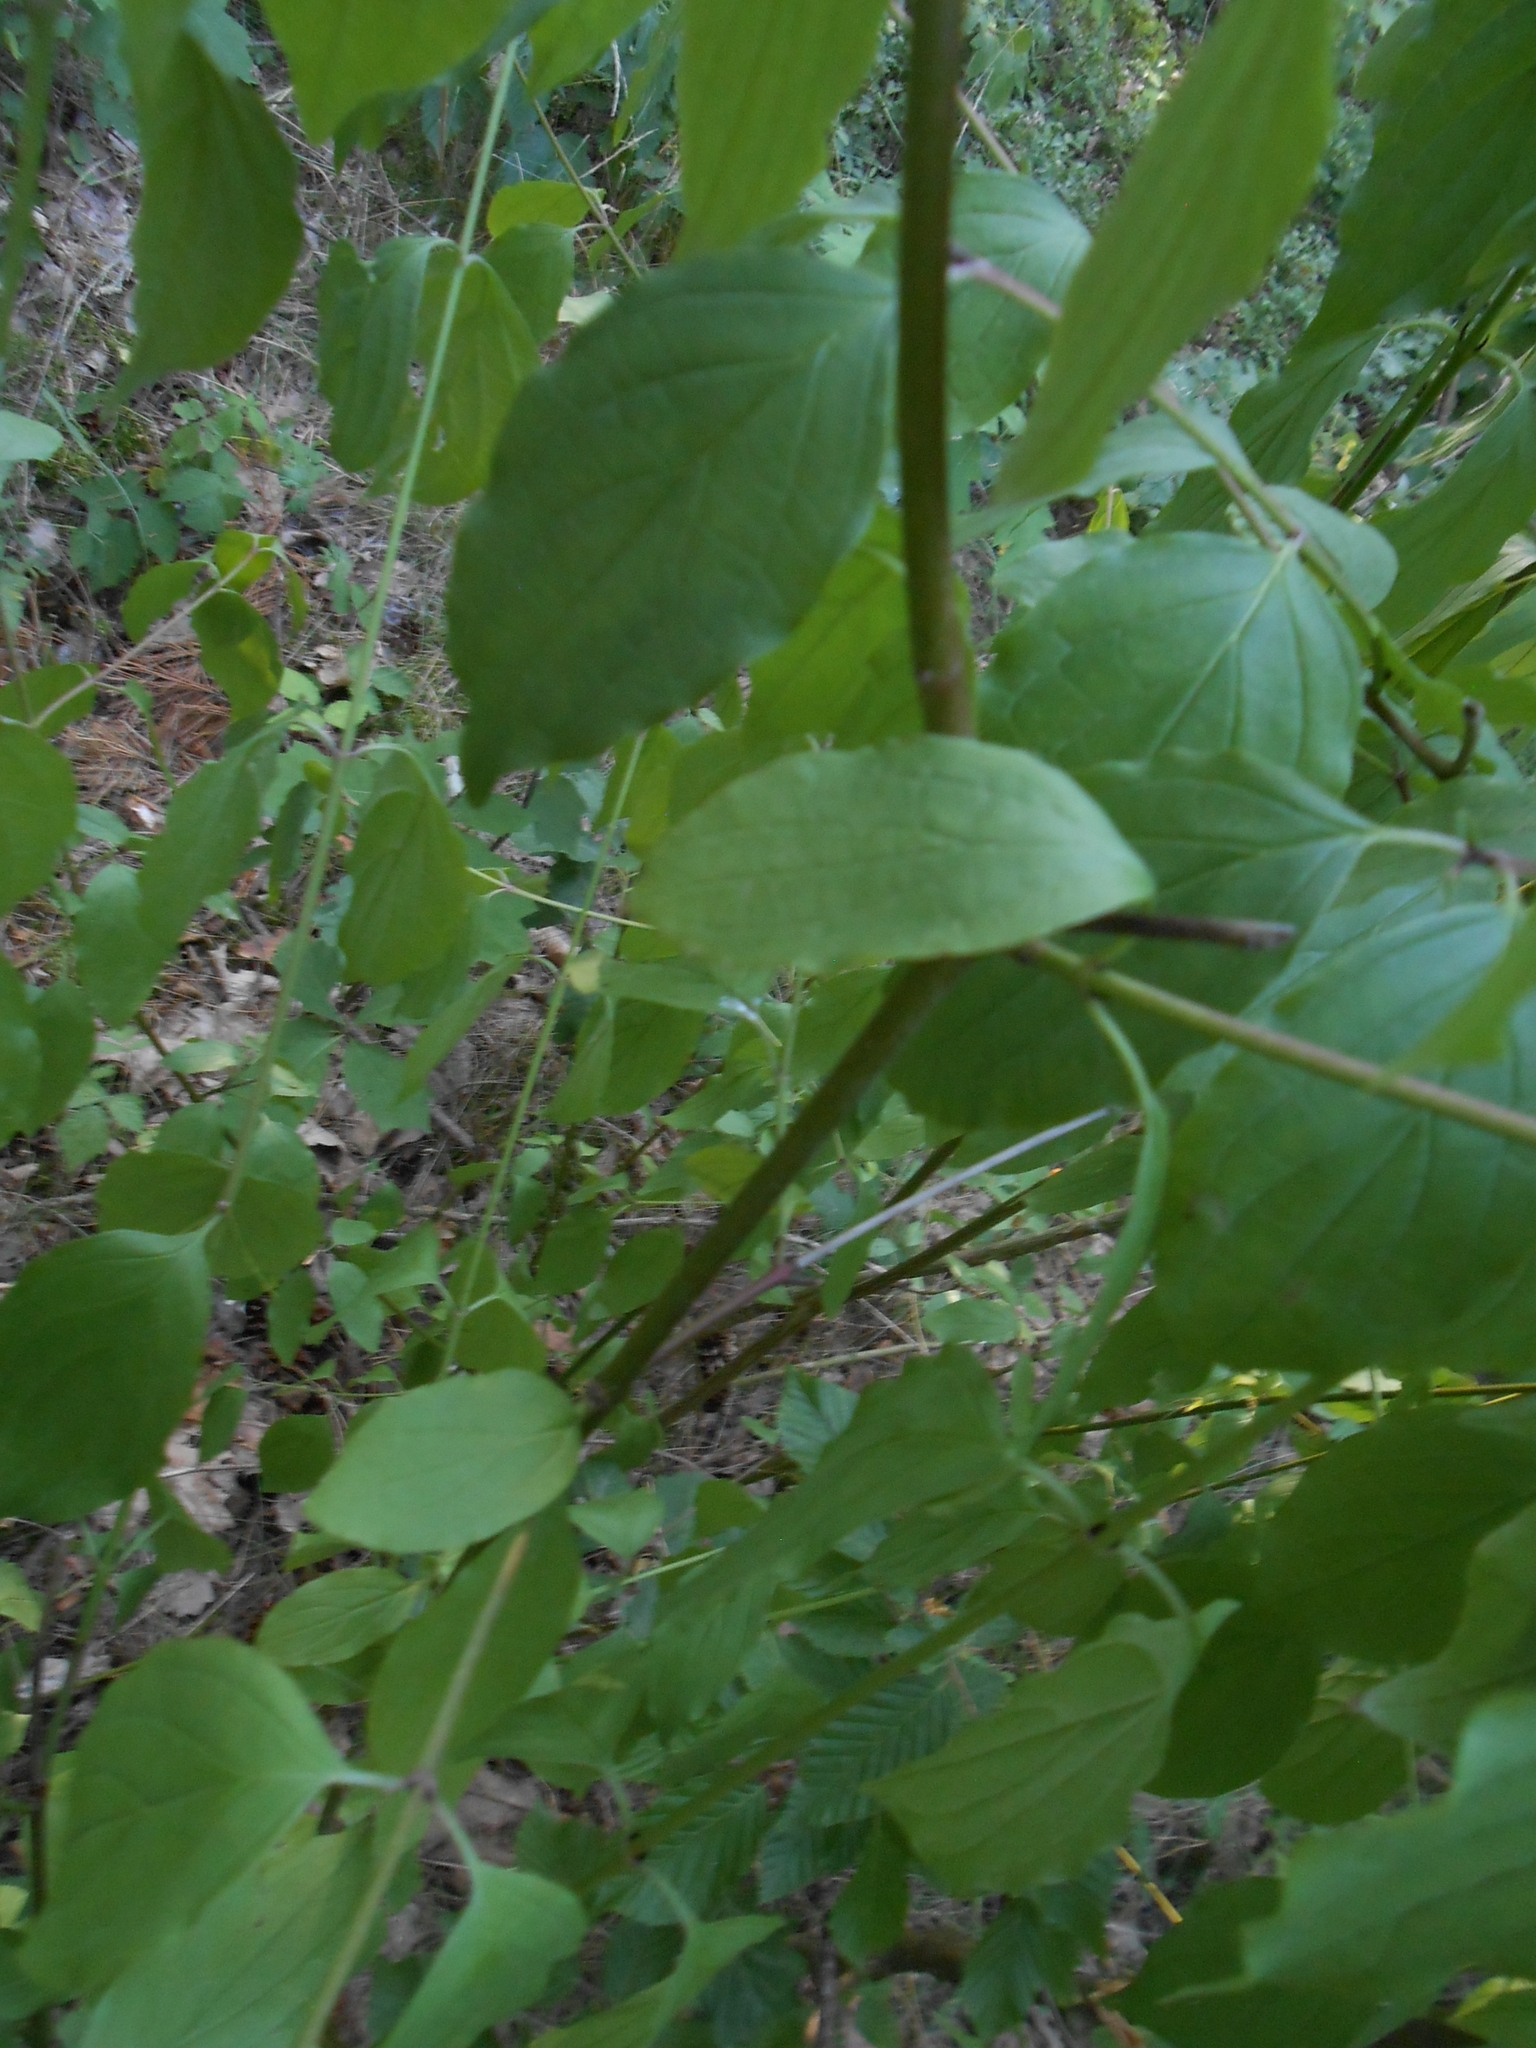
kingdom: Plantae
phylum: Tracheophyta
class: Magnoliopsida
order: Cornales
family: Cornaceae
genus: Cornus
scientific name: Cornus sanguinea
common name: Dogwood
